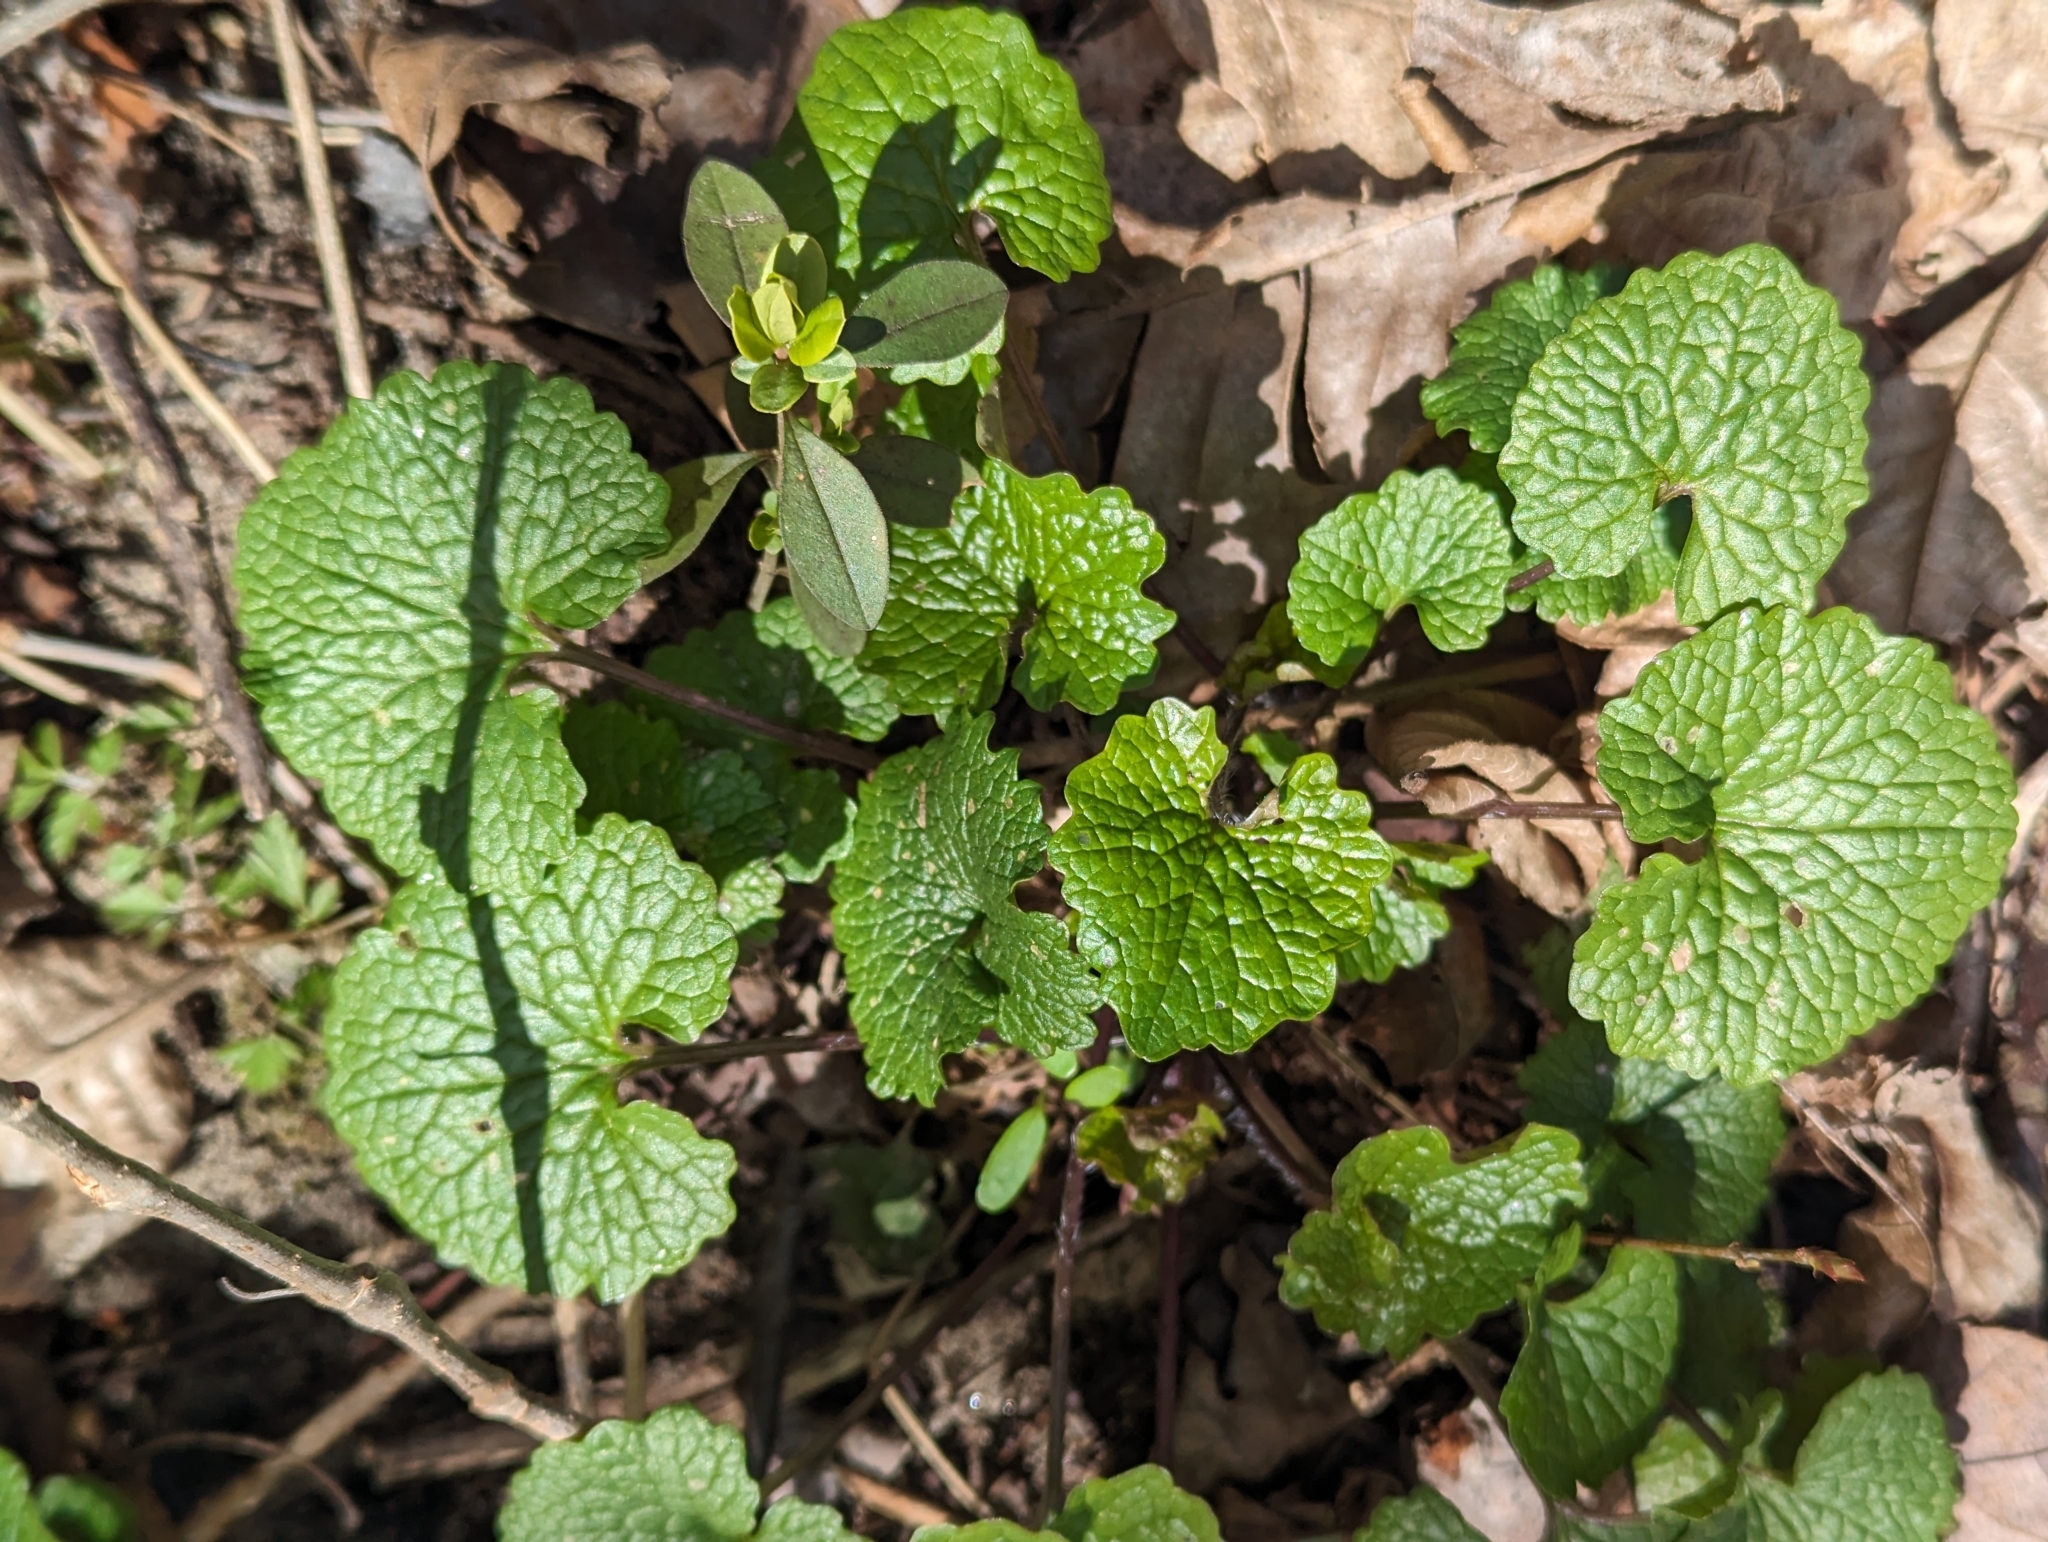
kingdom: Plantae
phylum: Tracheophyta
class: Magnoliopsida
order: Brassicales
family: Brassicaceae
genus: Alliaria
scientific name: Alliaria petiolata
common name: Garlic mustard
